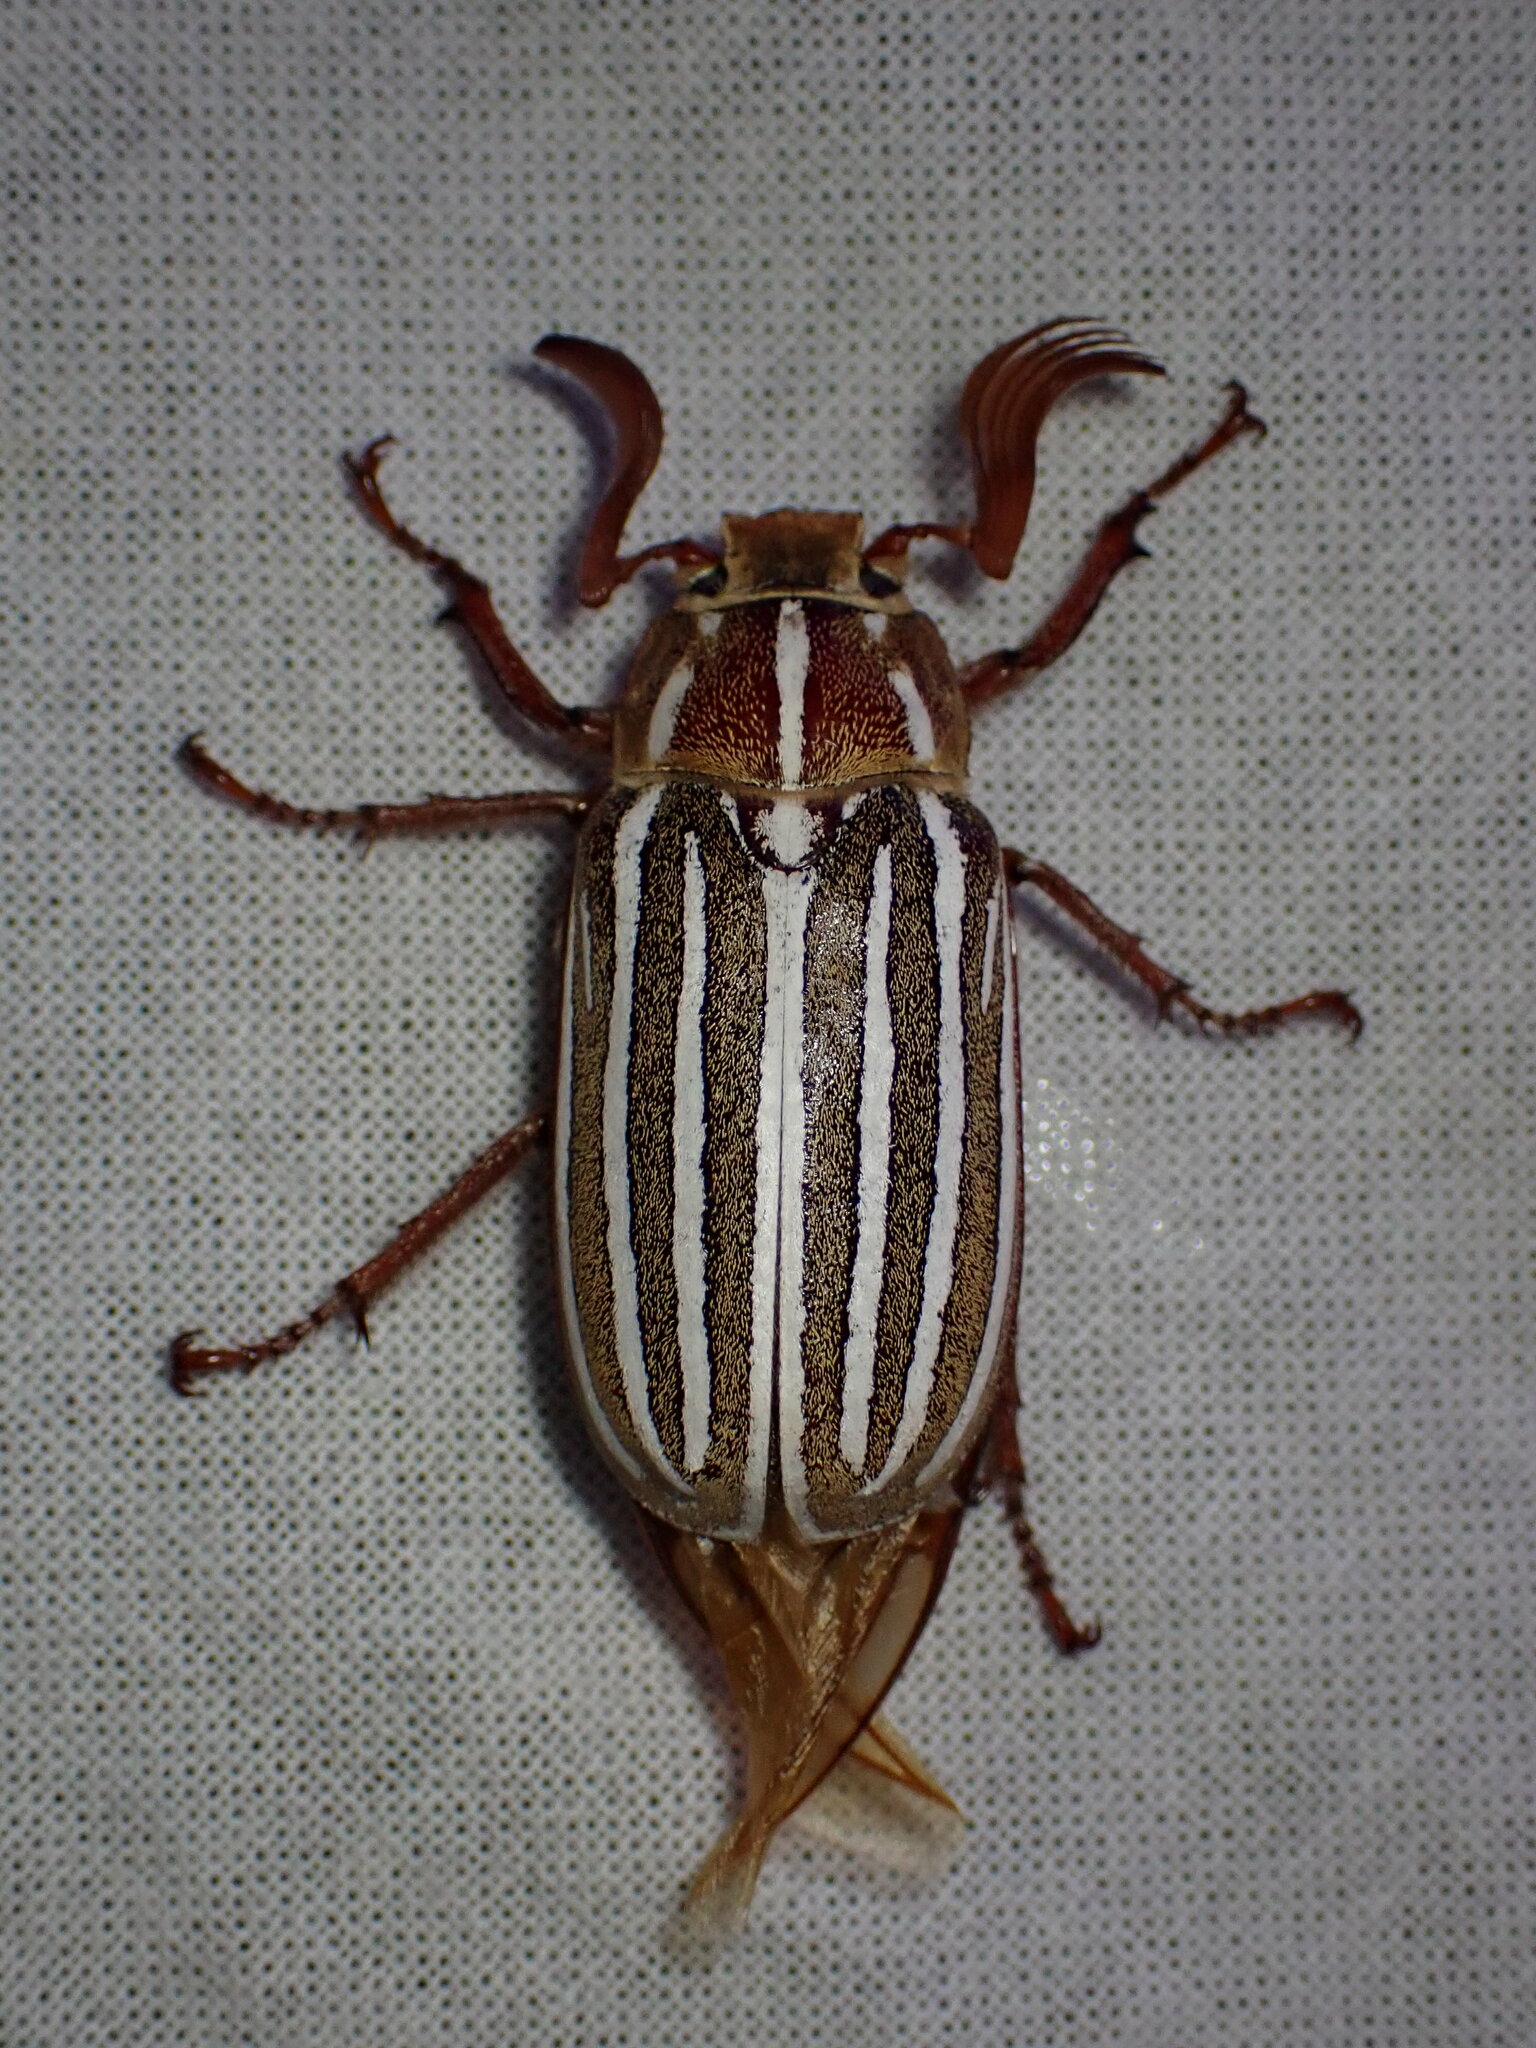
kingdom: Animalia
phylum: Arthropoda
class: Insecta
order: Coleoptera
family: Scarabaeidae
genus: Polyphylla
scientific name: Polyphylla decemlineata
